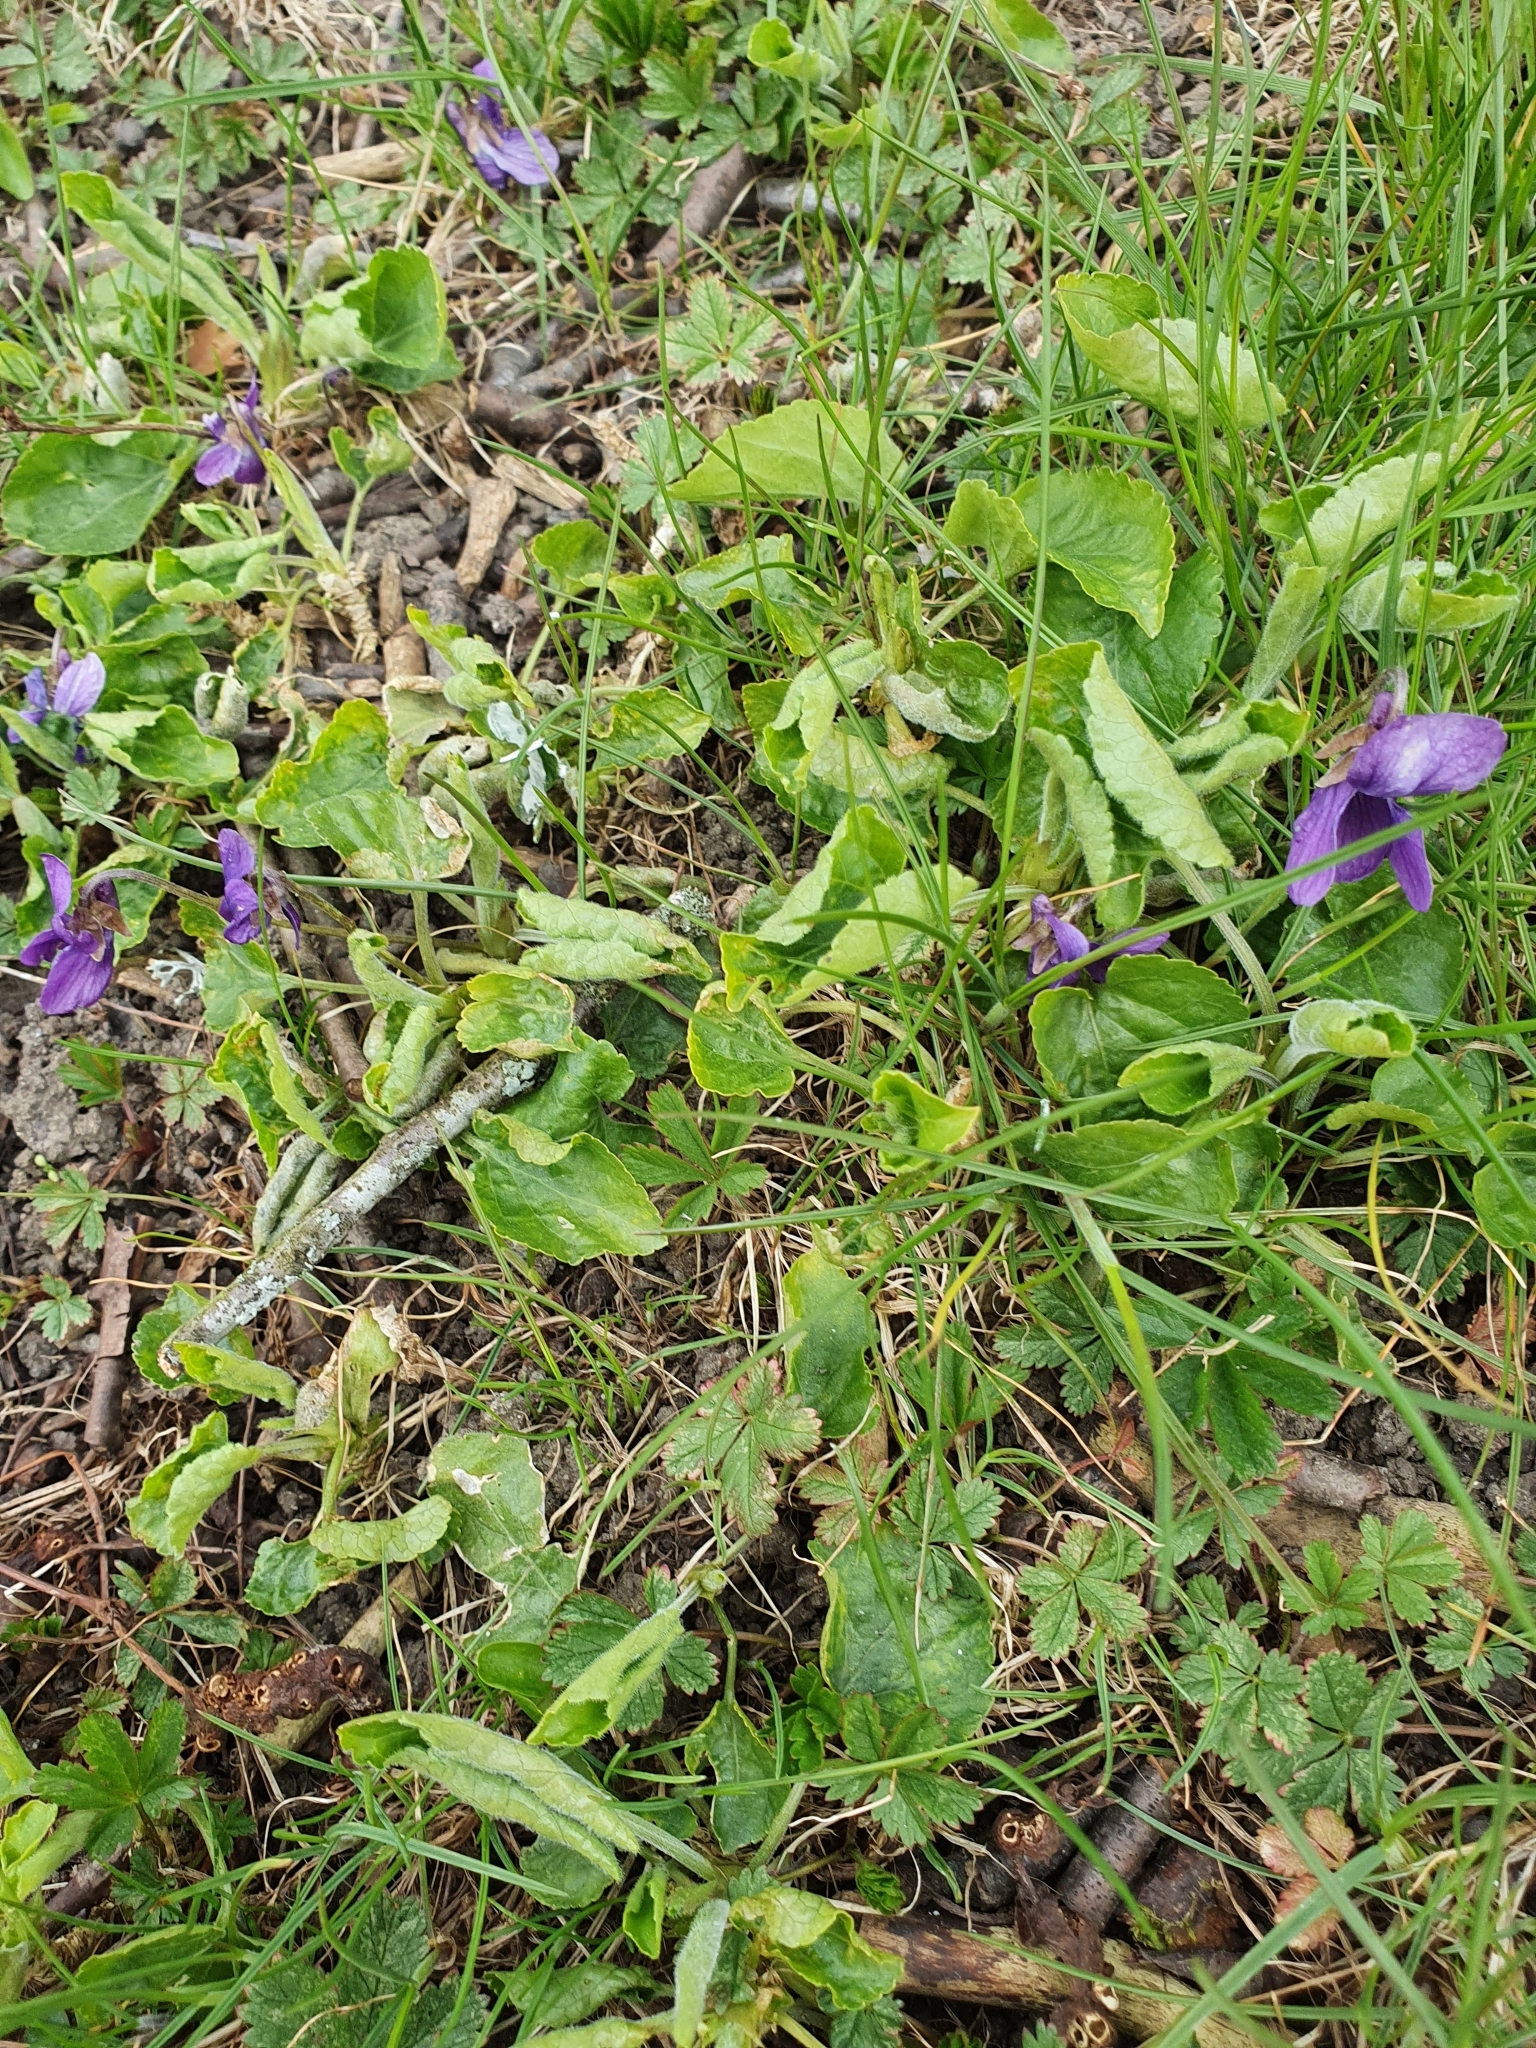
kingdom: Plantae
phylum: Tracheophyta
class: Magnoliopsida
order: Malpighiales
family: Violaceae
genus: Viola
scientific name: Viola odorata
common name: Sweet violet
